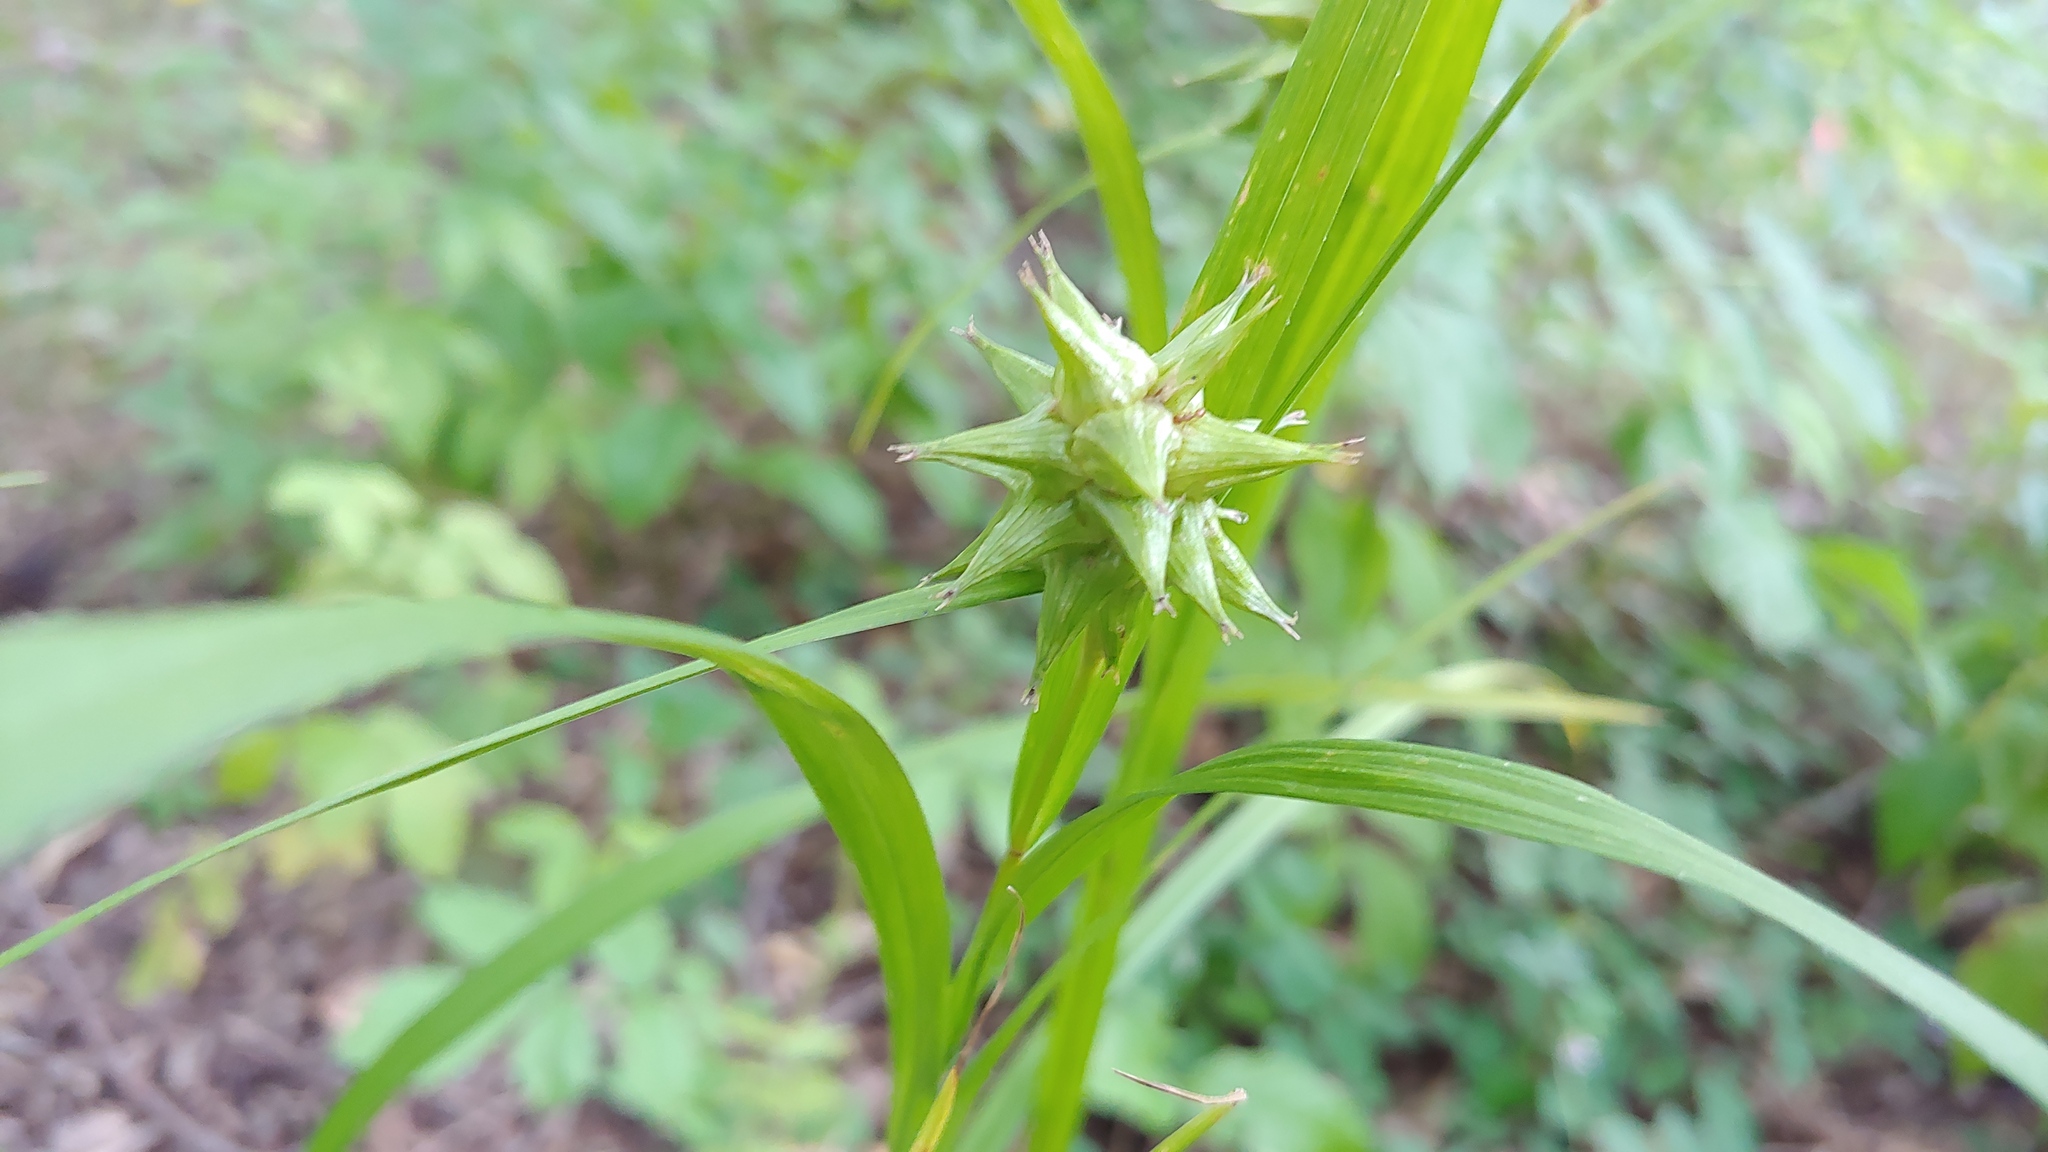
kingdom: Plantae
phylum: Tracheophyta
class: Liliopsida
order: Poales
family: Cyperaceae
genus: Carex
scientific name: Carex grayi
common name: Asa gray's sedge
